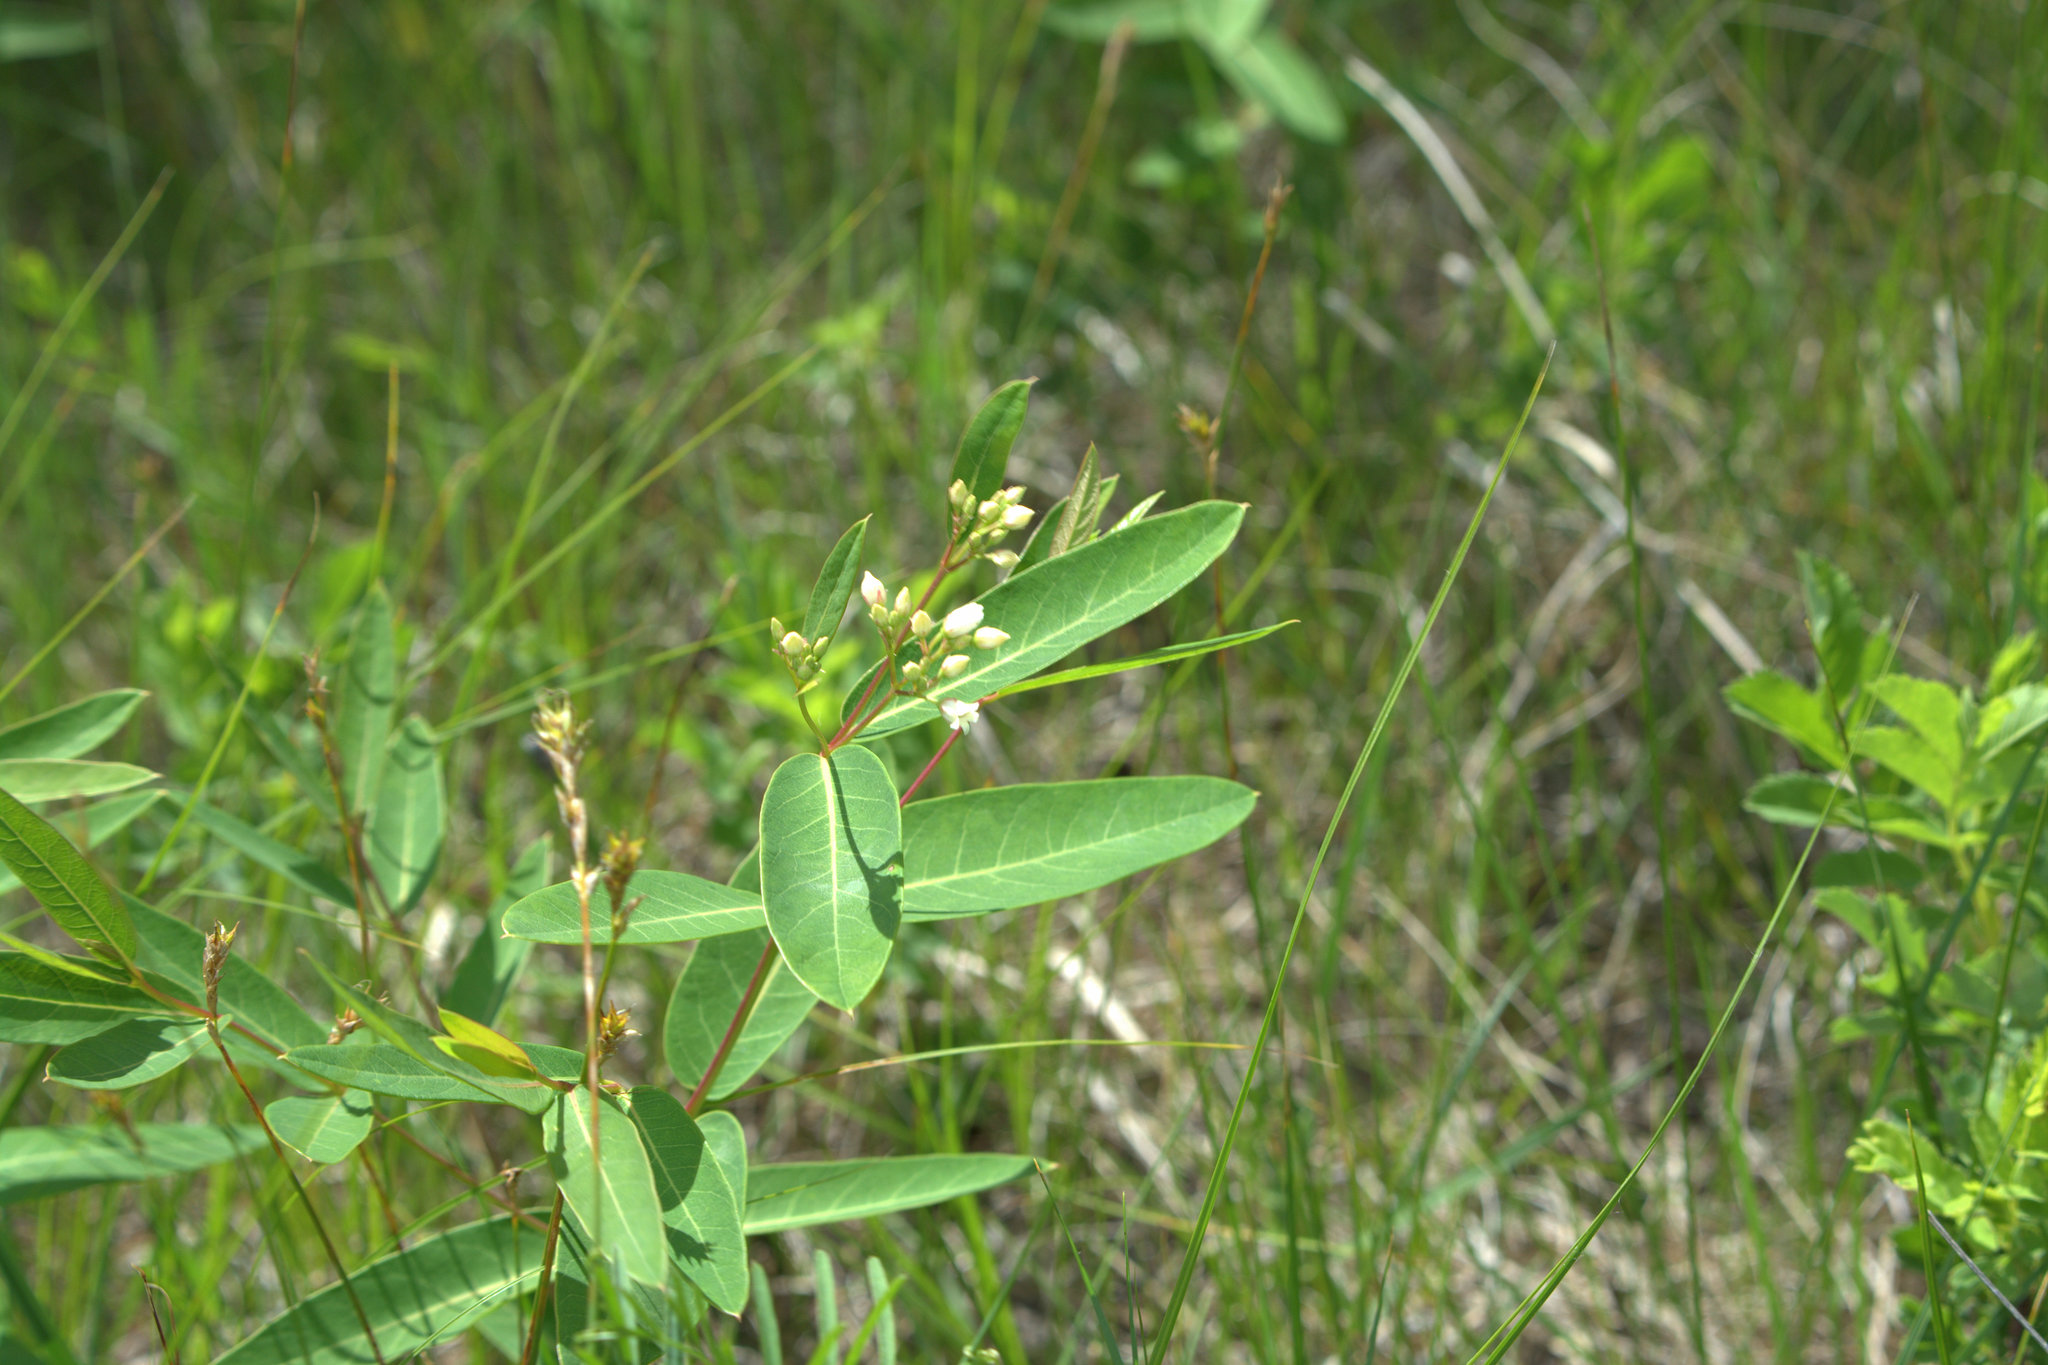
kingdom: Plantae
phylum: Tracheophyta
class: Magnoliopsida
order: Gentianales
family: Apocynaceae
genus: Apocynum
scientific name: Apocynum cannabinum
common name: Hemp dogbane
